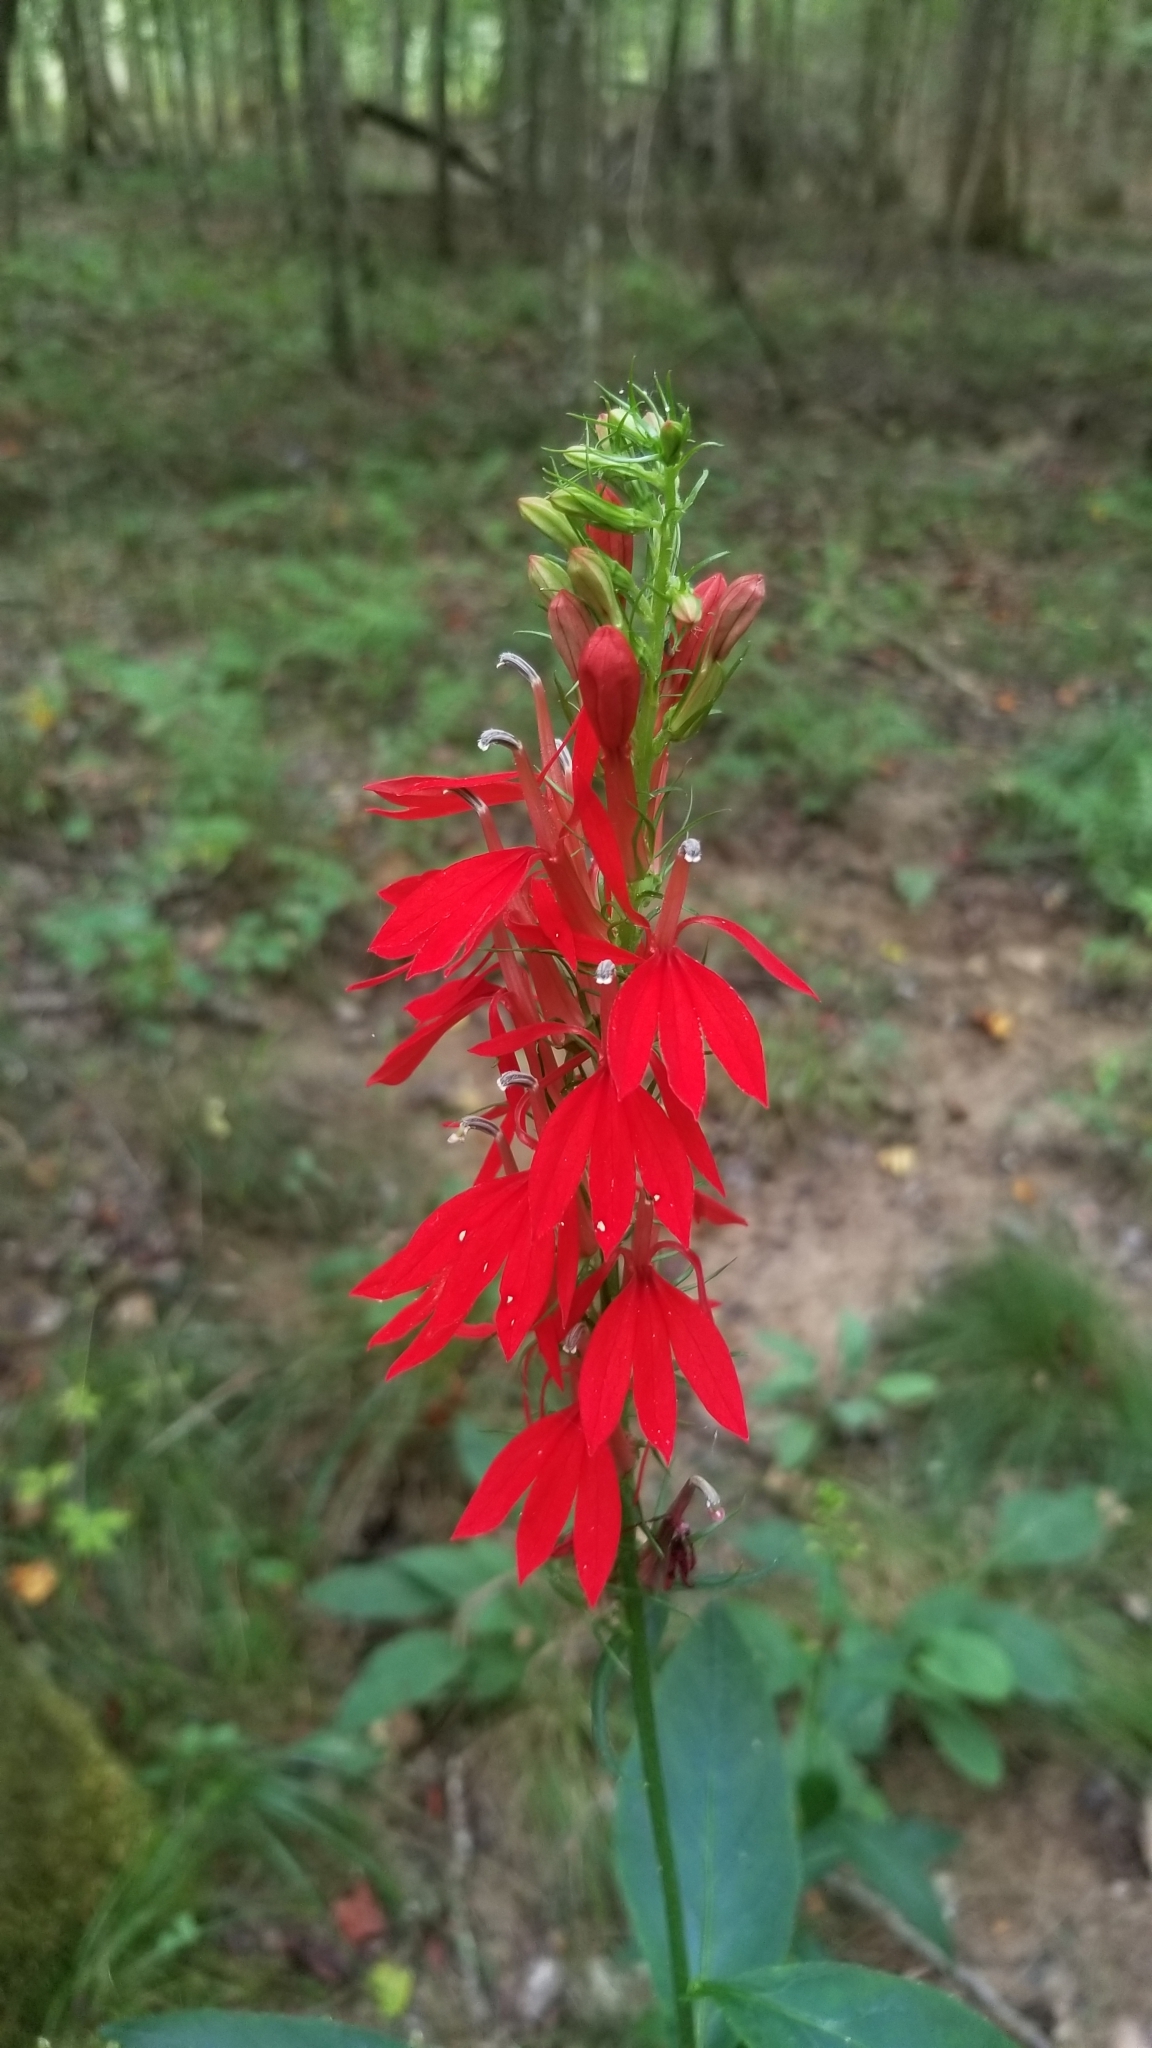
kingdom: Plantae
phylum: Tracheophyta
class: Magnoliopsida
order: Asterales
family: Campanulaceae
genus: Lobelia
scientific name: Lobelia cardinalis
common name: Cardinal flower
